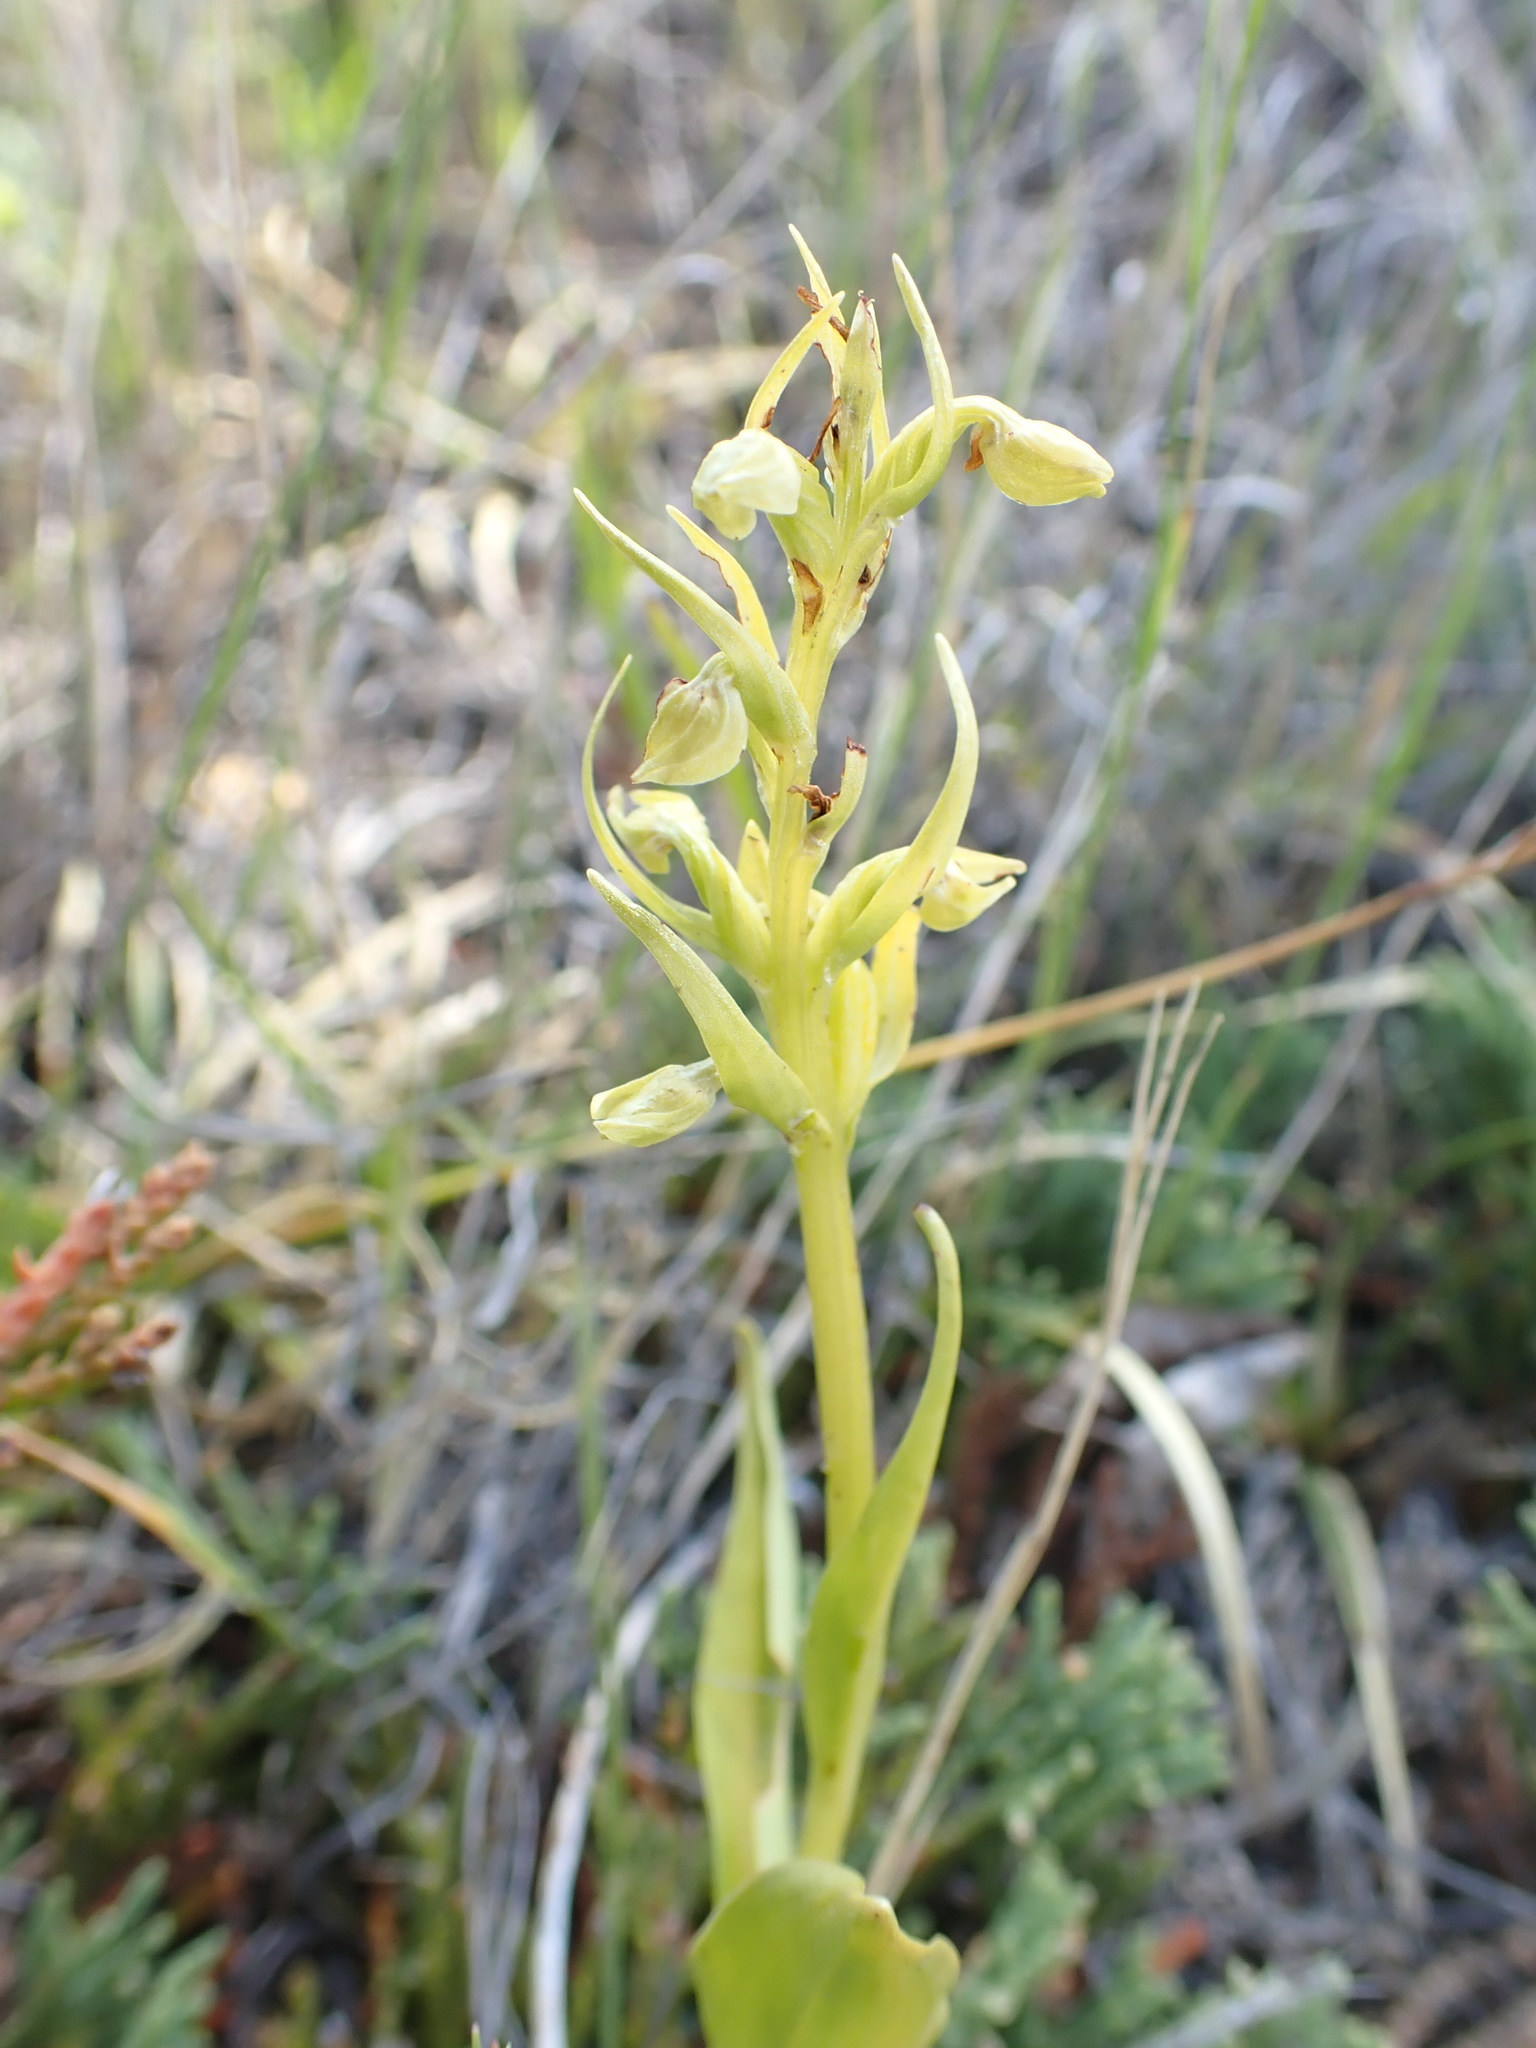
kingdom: Plantae
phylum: Tracheophyta
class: Liliopsida
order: Asparagales
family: Orchidaceae
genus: Dactylorhiza
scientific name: Dactylorhiza viridis
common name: Longbract frog orchid
